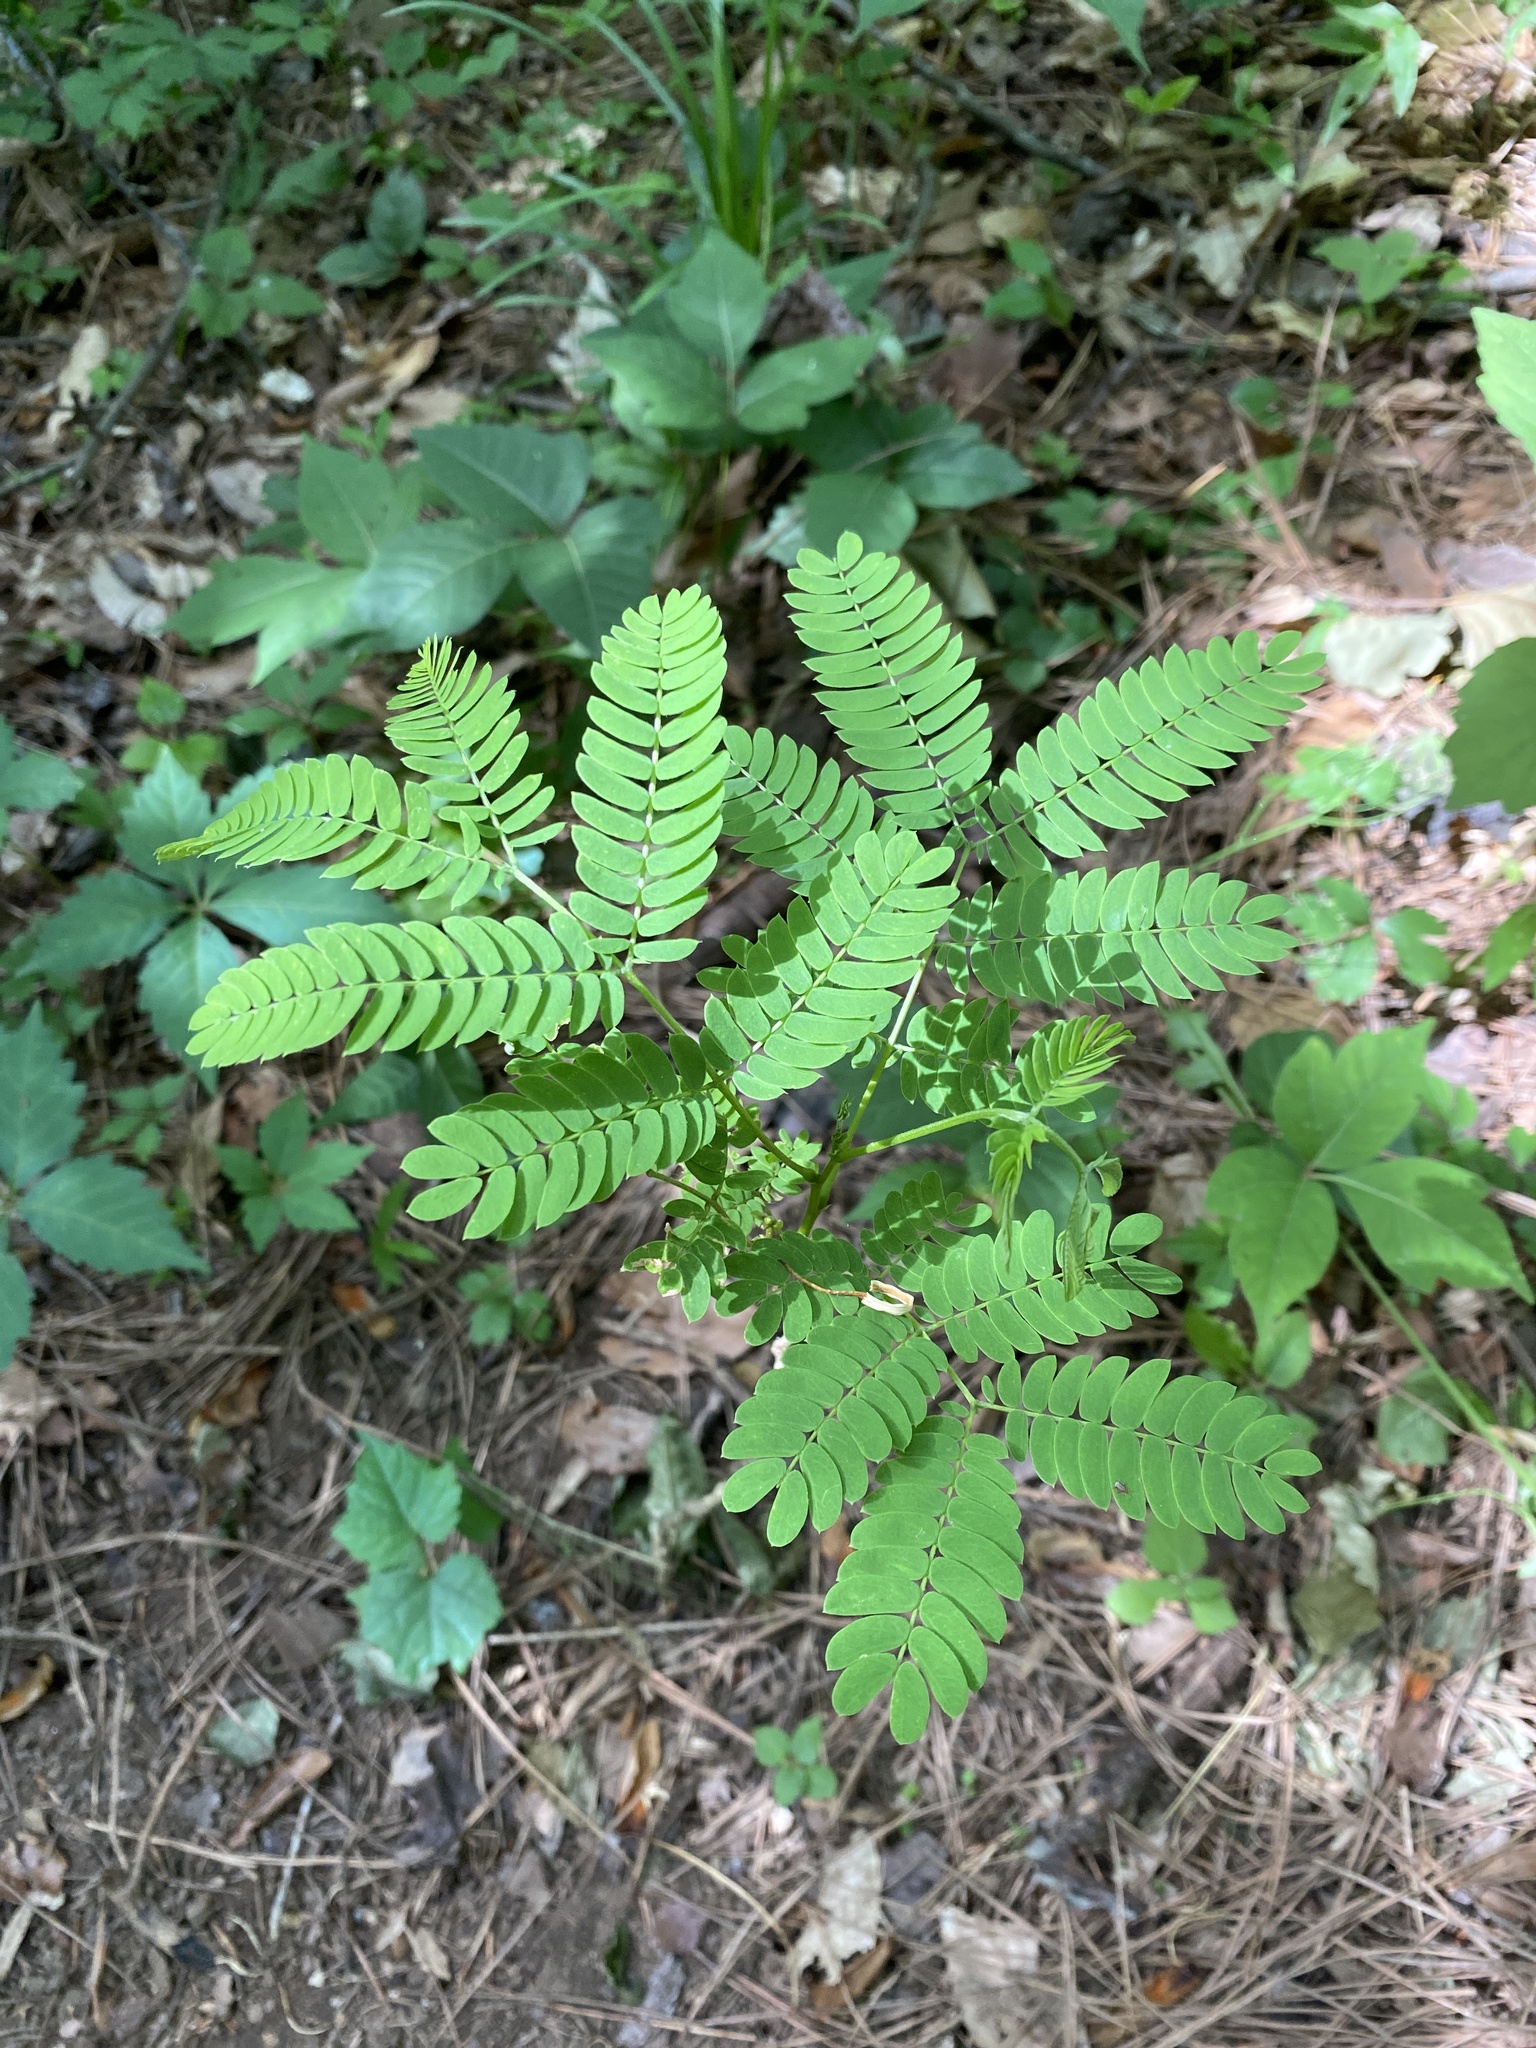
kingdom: Plantae
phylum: Tracheophyta
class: Magnoliopsida
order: Fabales
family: Fabaceae
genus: Albizia
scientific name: Albizia julibrissin
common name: Silktree
